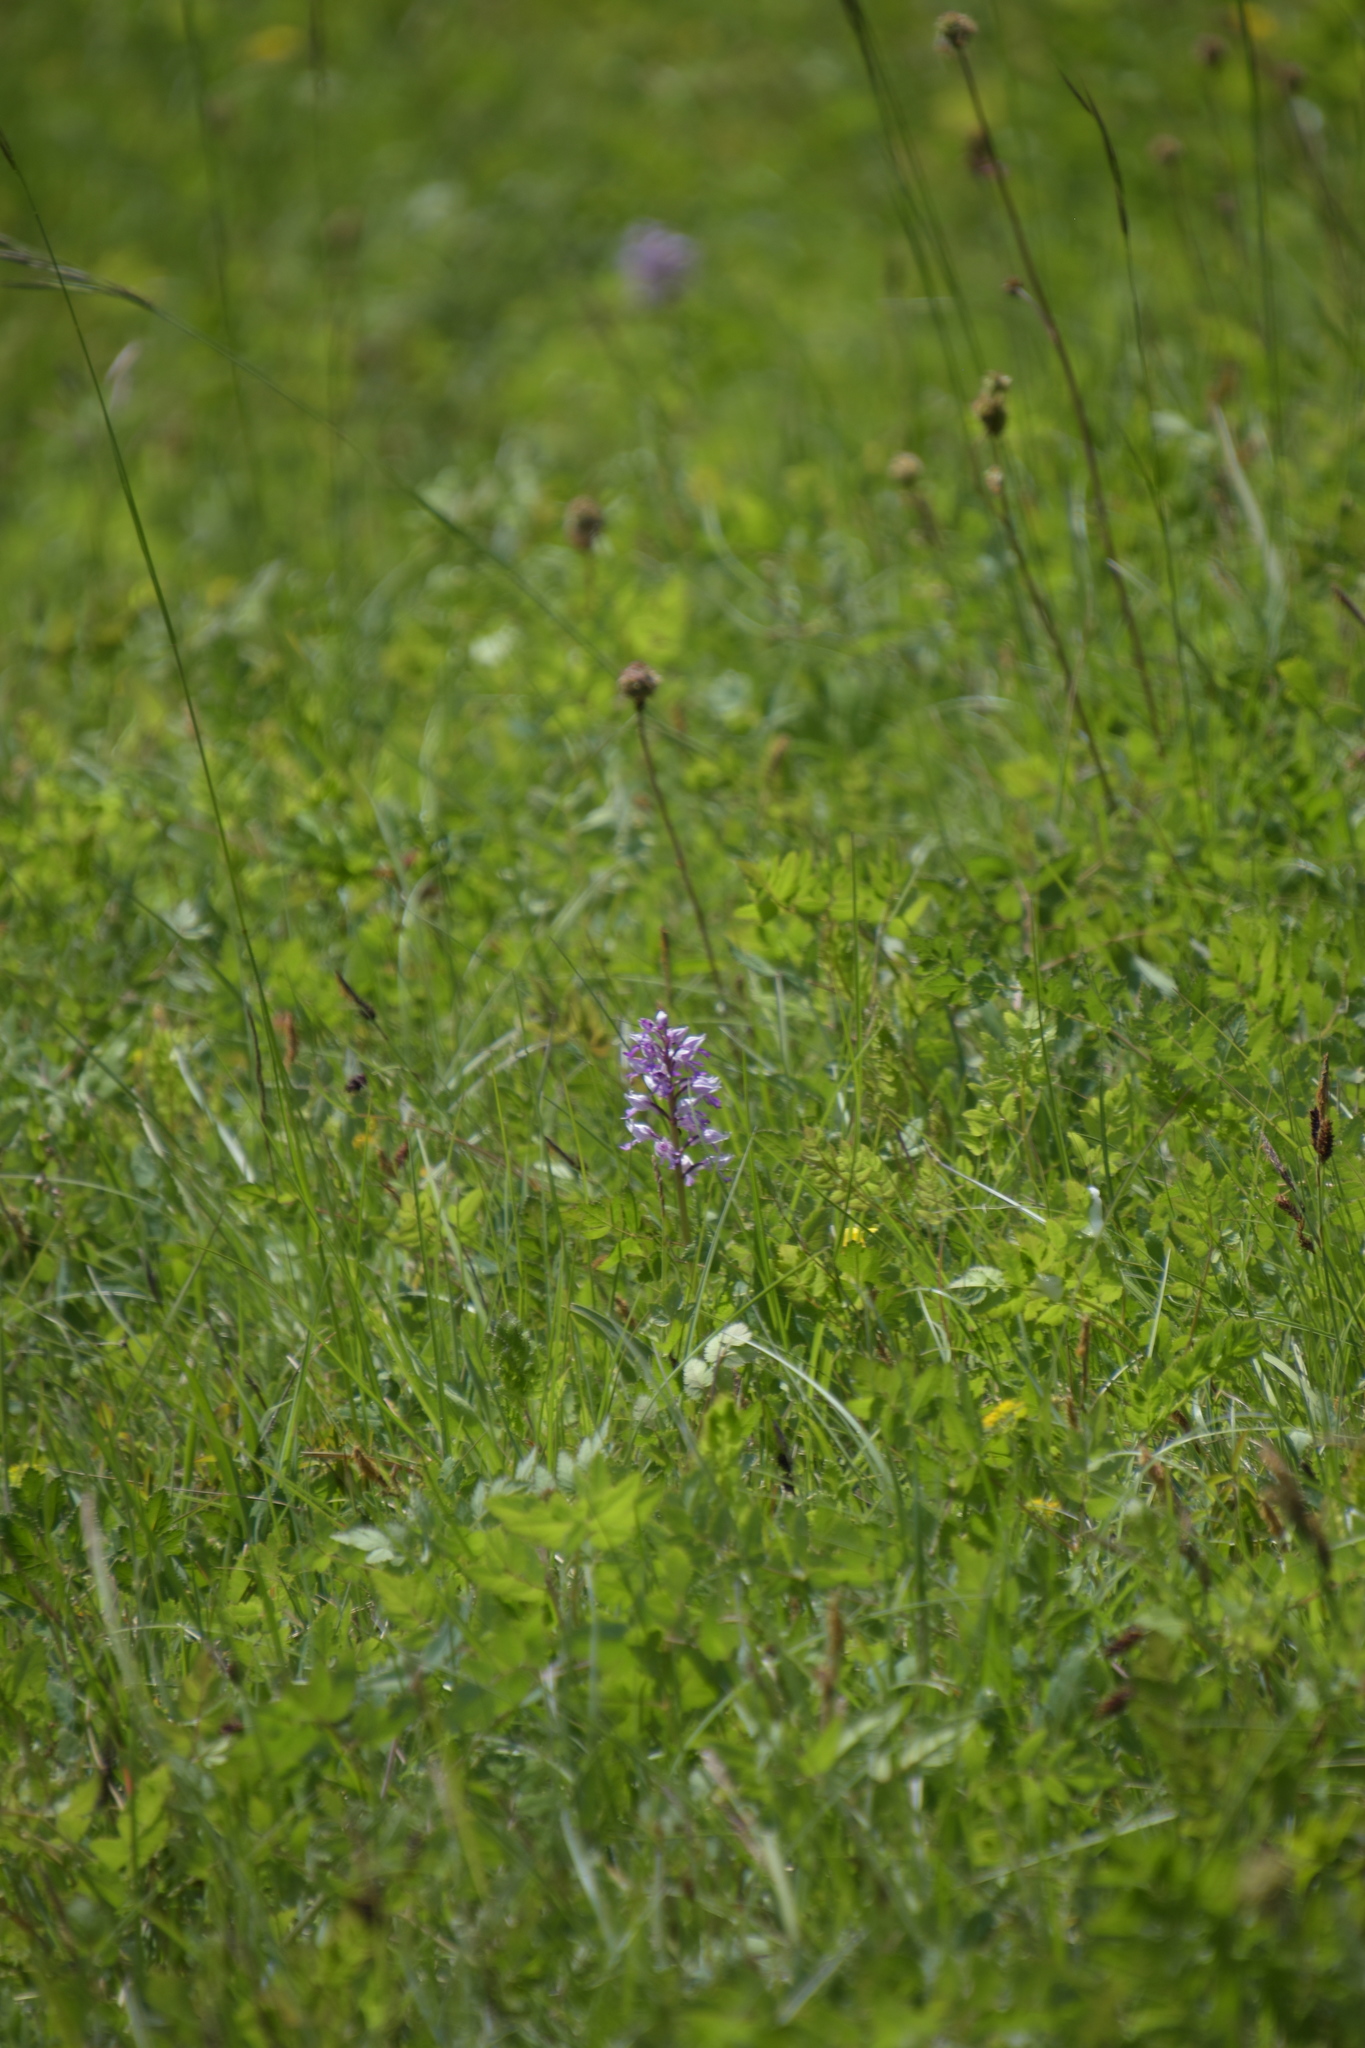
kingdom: Plantae
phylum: Tracheophyta
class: Liliopsida
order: Asparagales
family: Orchidaceae
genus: Orchis
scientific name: Orchis militaris
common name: Military orchid
